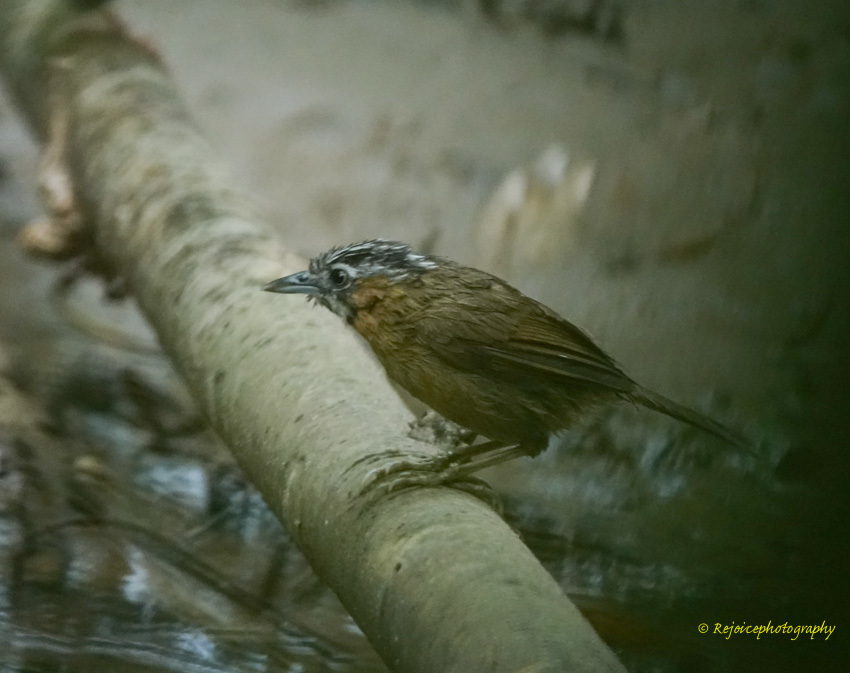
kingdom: Animalia
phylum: Chordata
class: Aves
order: Passeriformes
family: Timaliidae
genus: Stachyris
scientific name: Stachyris nigriceps
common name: Grey-throated babbler
